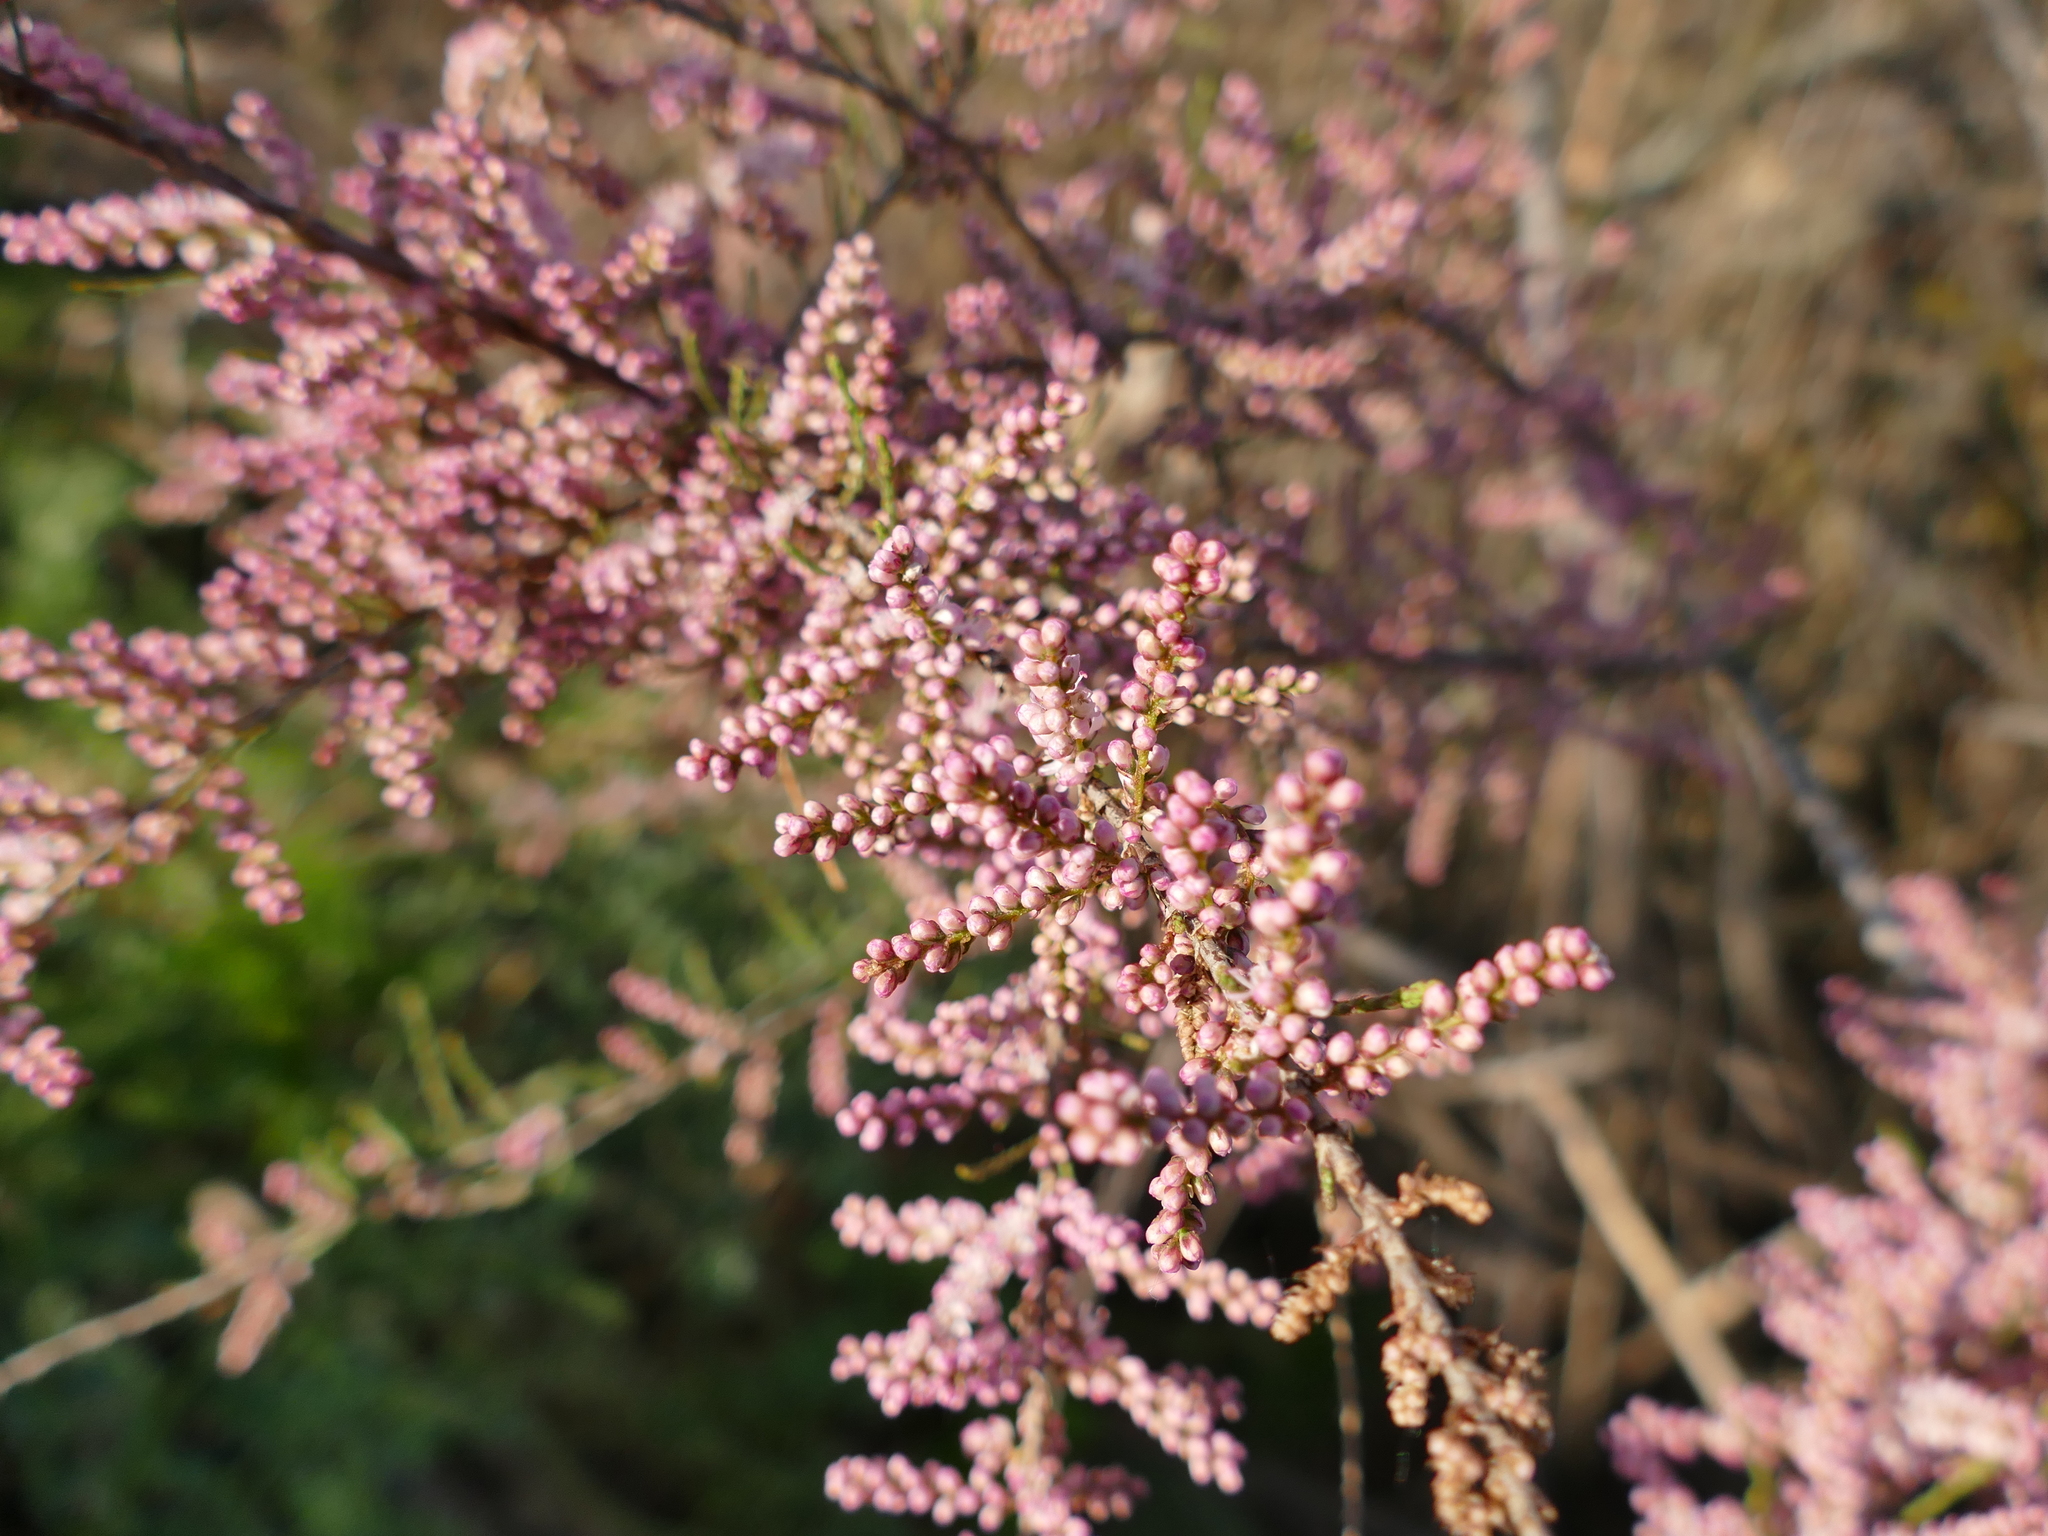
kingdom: Plantae
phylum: Tracheophyta
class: Magnoliopsida
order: Caryophyllales
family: Tamaricaceae
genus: Tamarix
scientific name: Tamarix gallica
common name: Tamarisk
